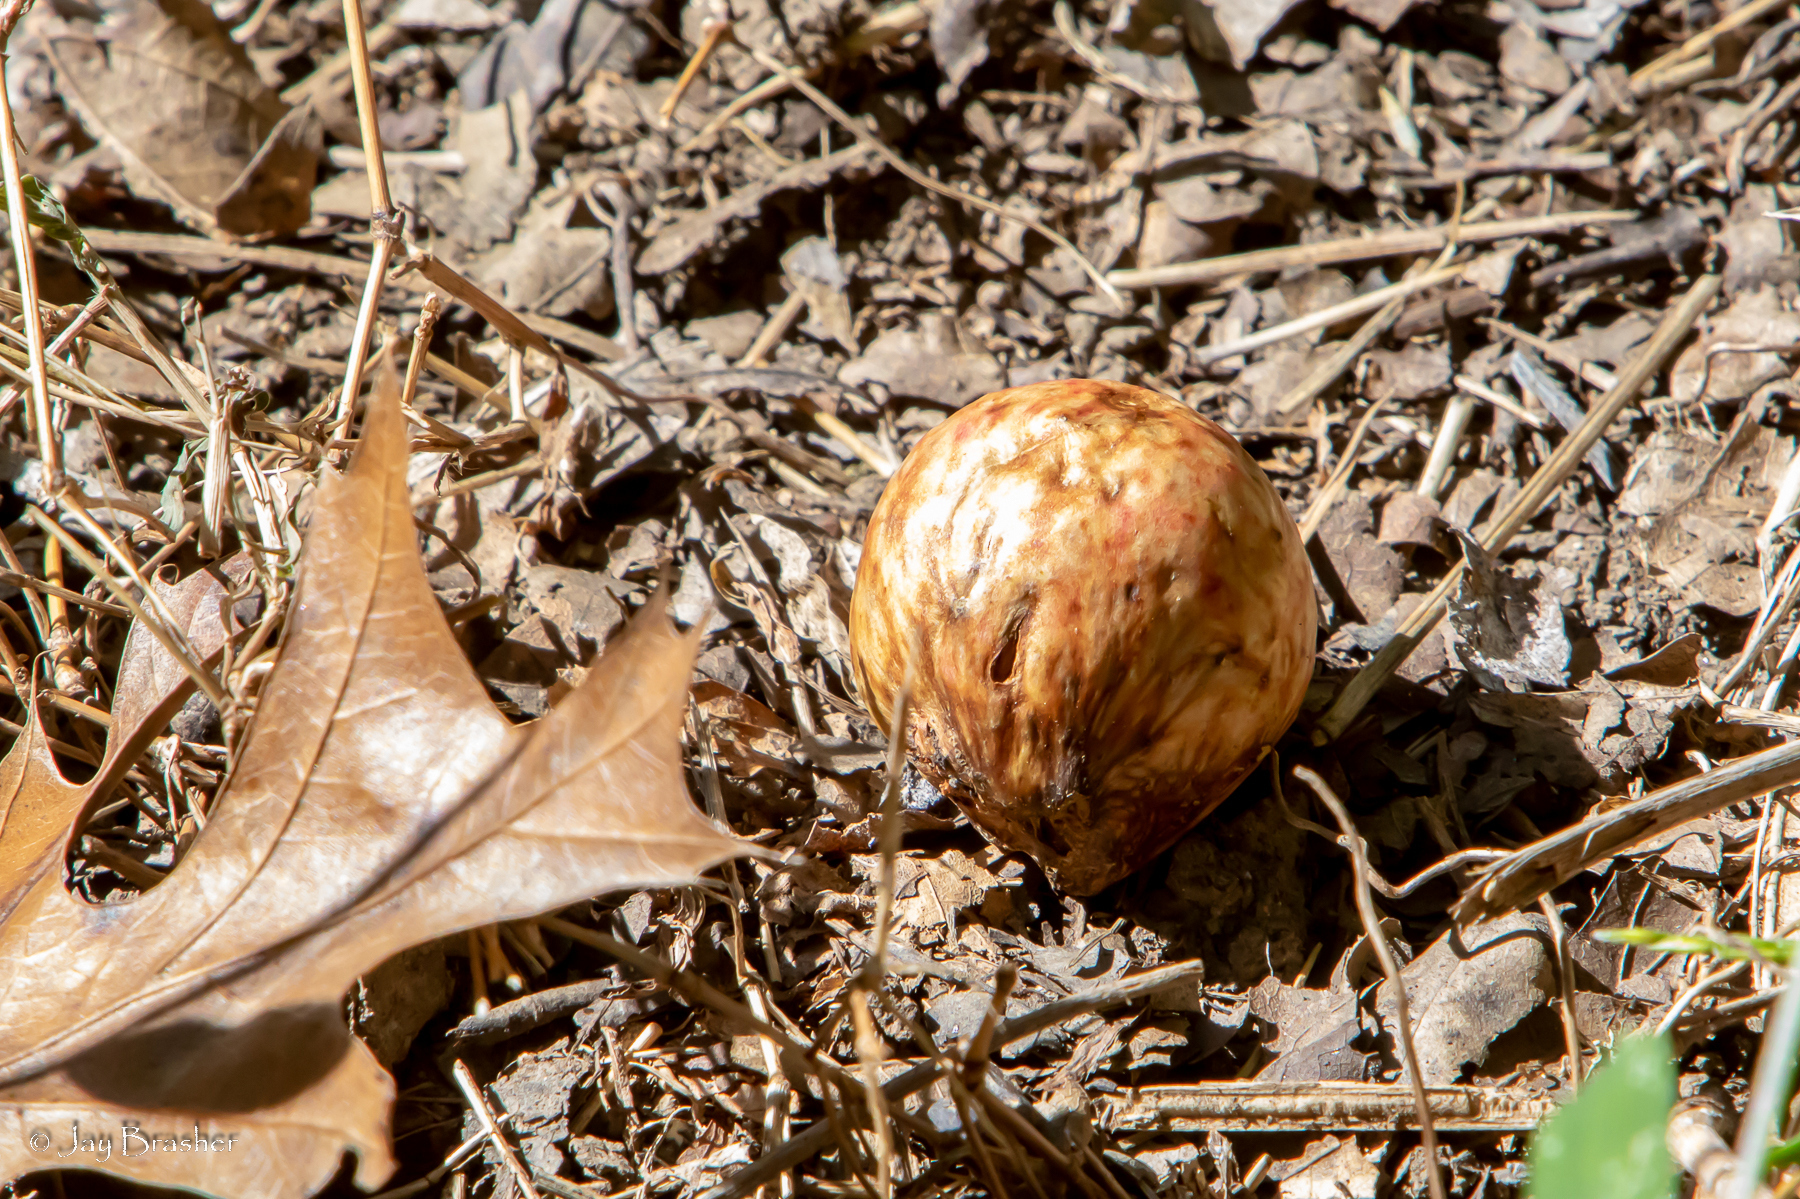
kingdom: Animalia
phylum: Arthropoda
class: Insecta
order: Hymenoptera
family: Cynipidae
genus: Amphibolips
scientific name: Amphibolips
